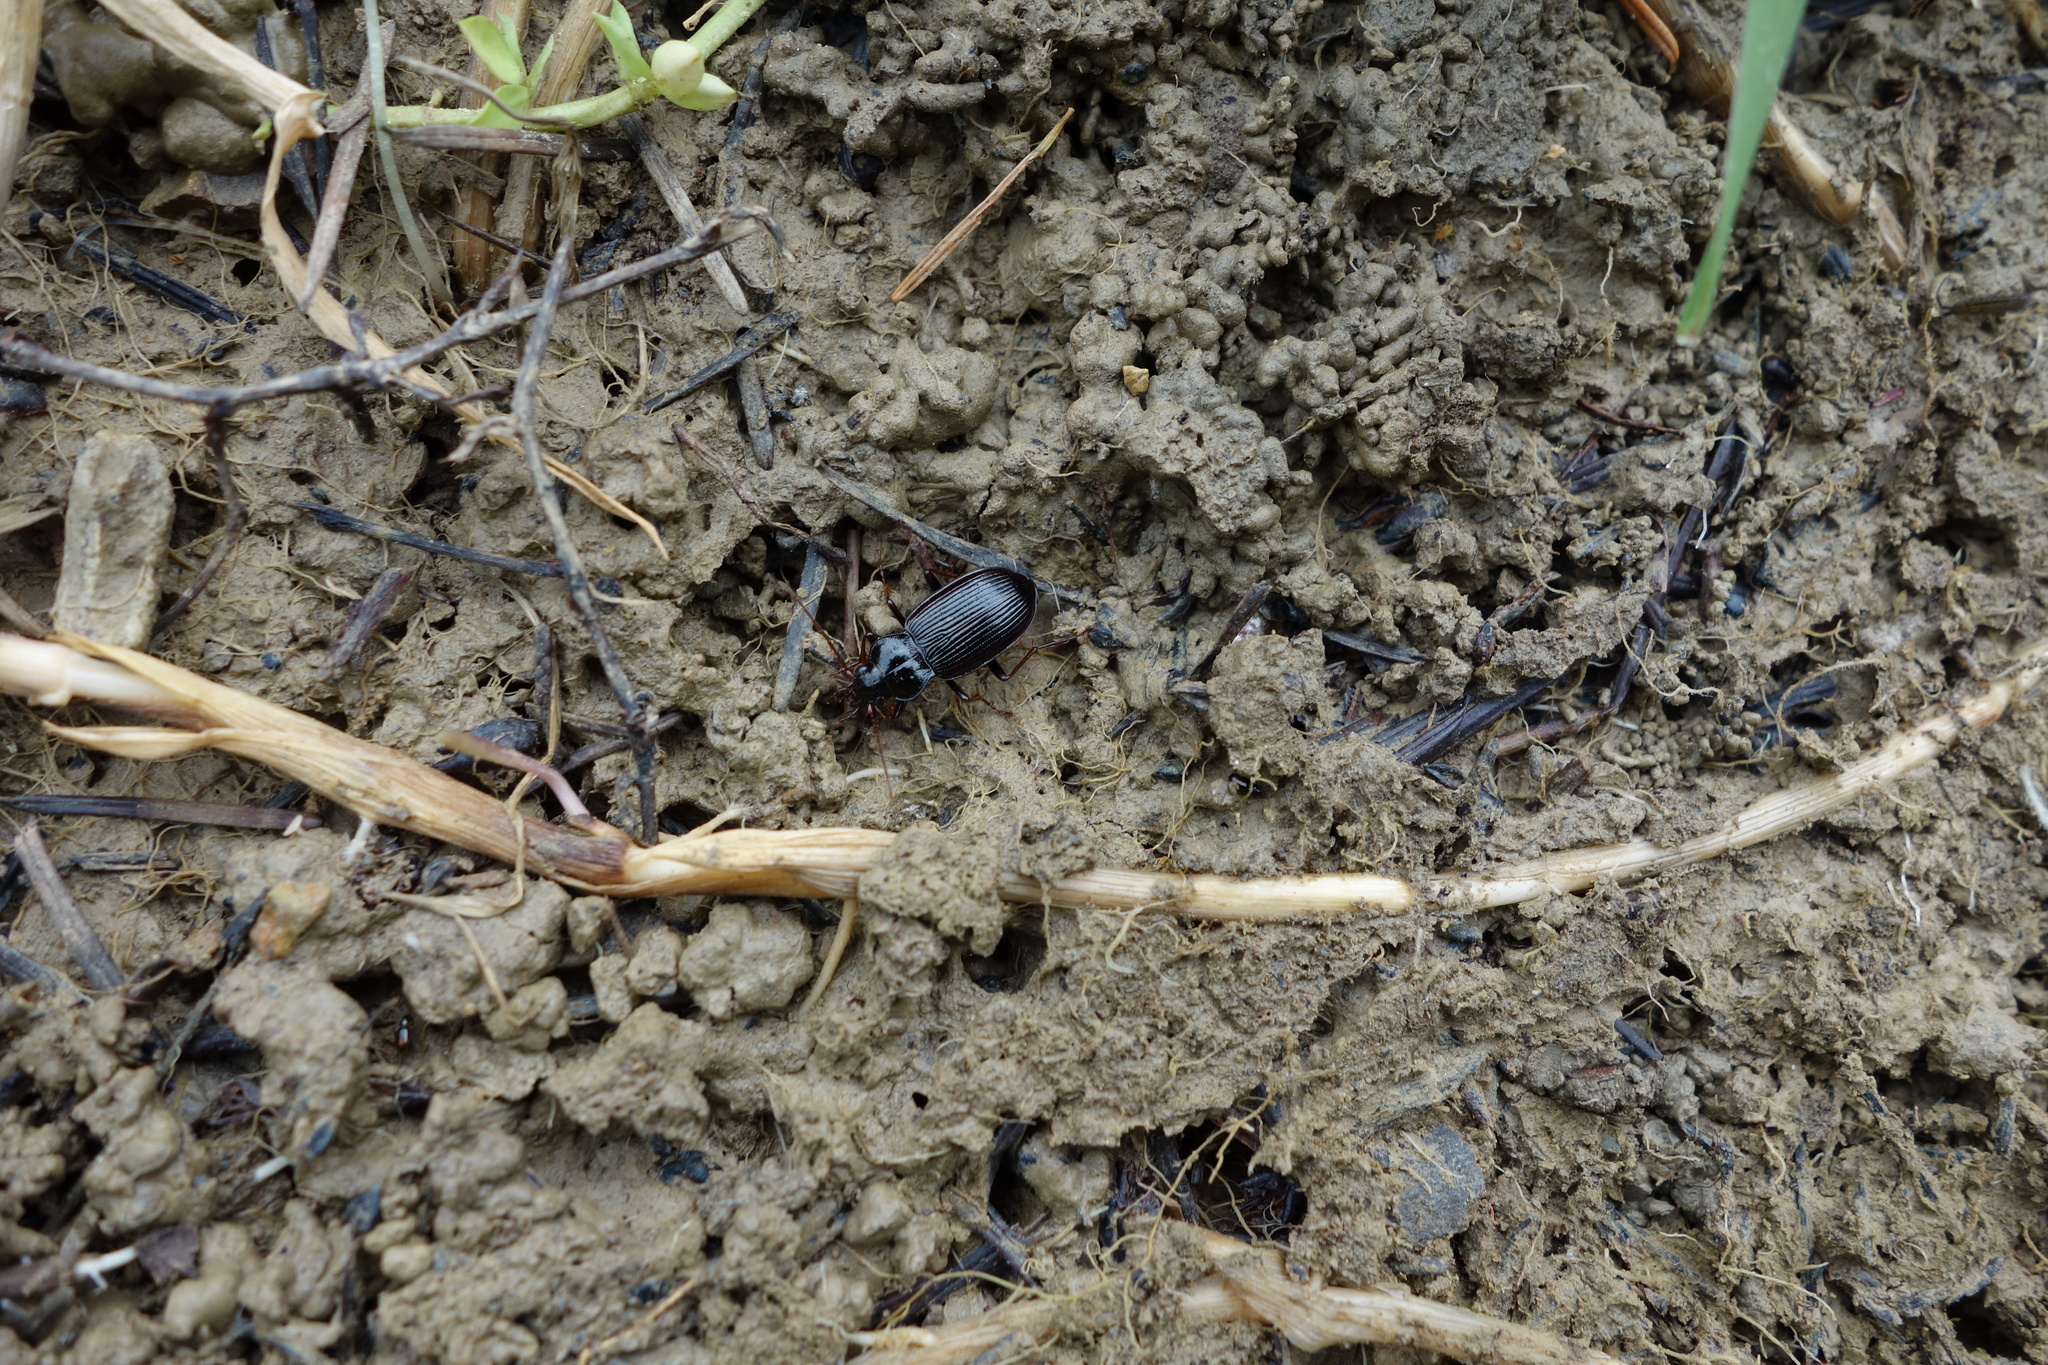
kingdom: Animalia
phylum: Arthropoda
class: Insecta
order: Coleoptera
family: Carabidae
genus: Nebria
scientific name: Nebria brevicollis
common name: Short-necked gazelle beetle
